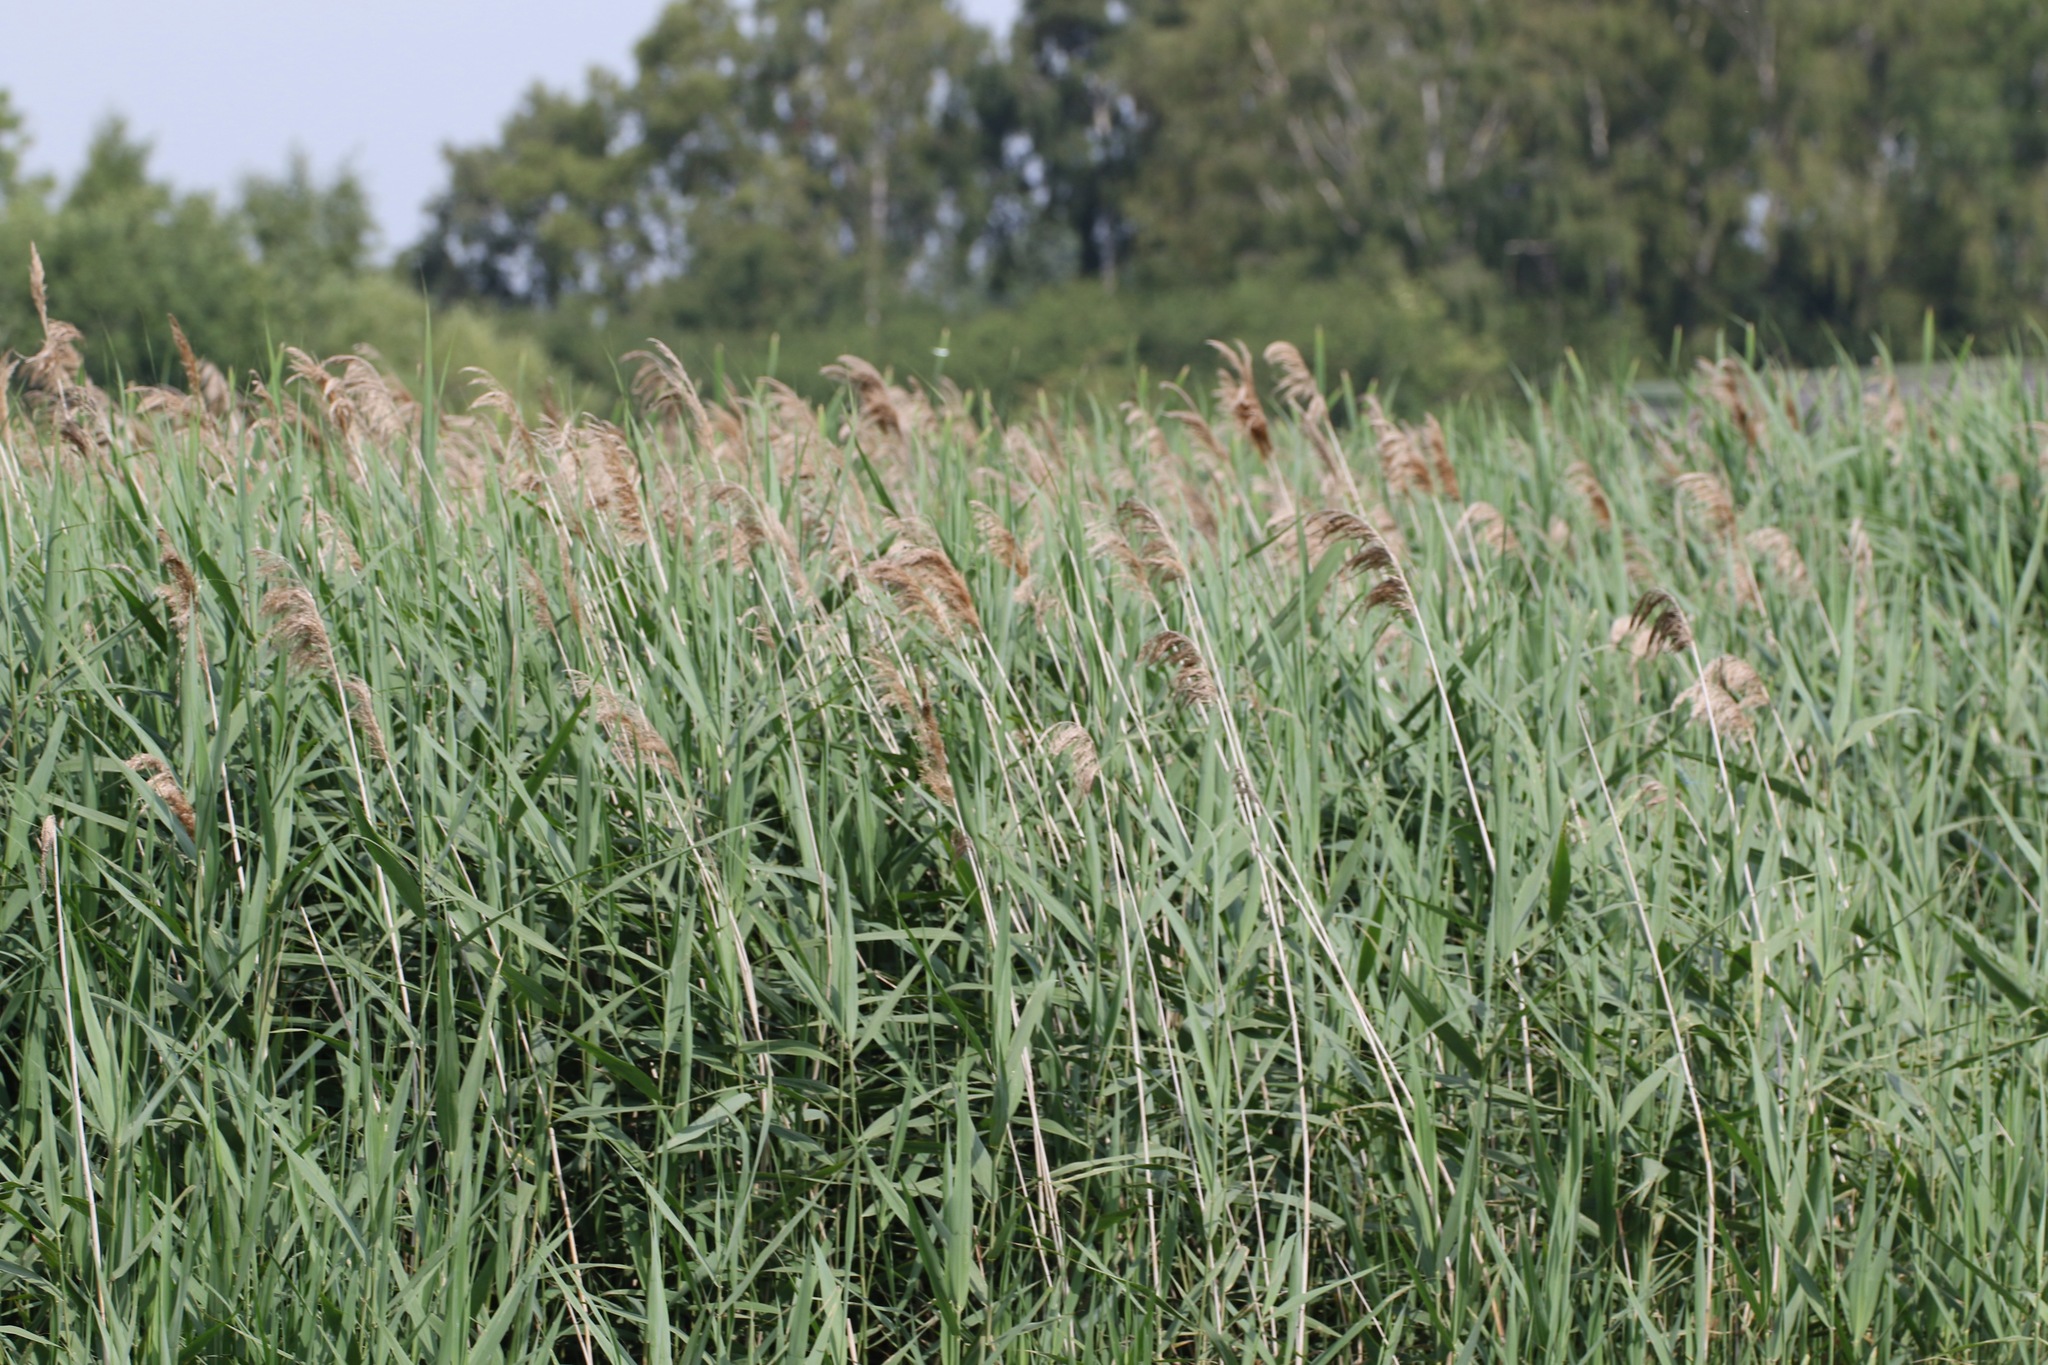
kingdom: Plantae
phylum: Tracheophyta
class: Liliopsida
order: Poales
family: Poaceae
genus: Phragmites
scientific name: Phragmites australis
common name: Common reed
